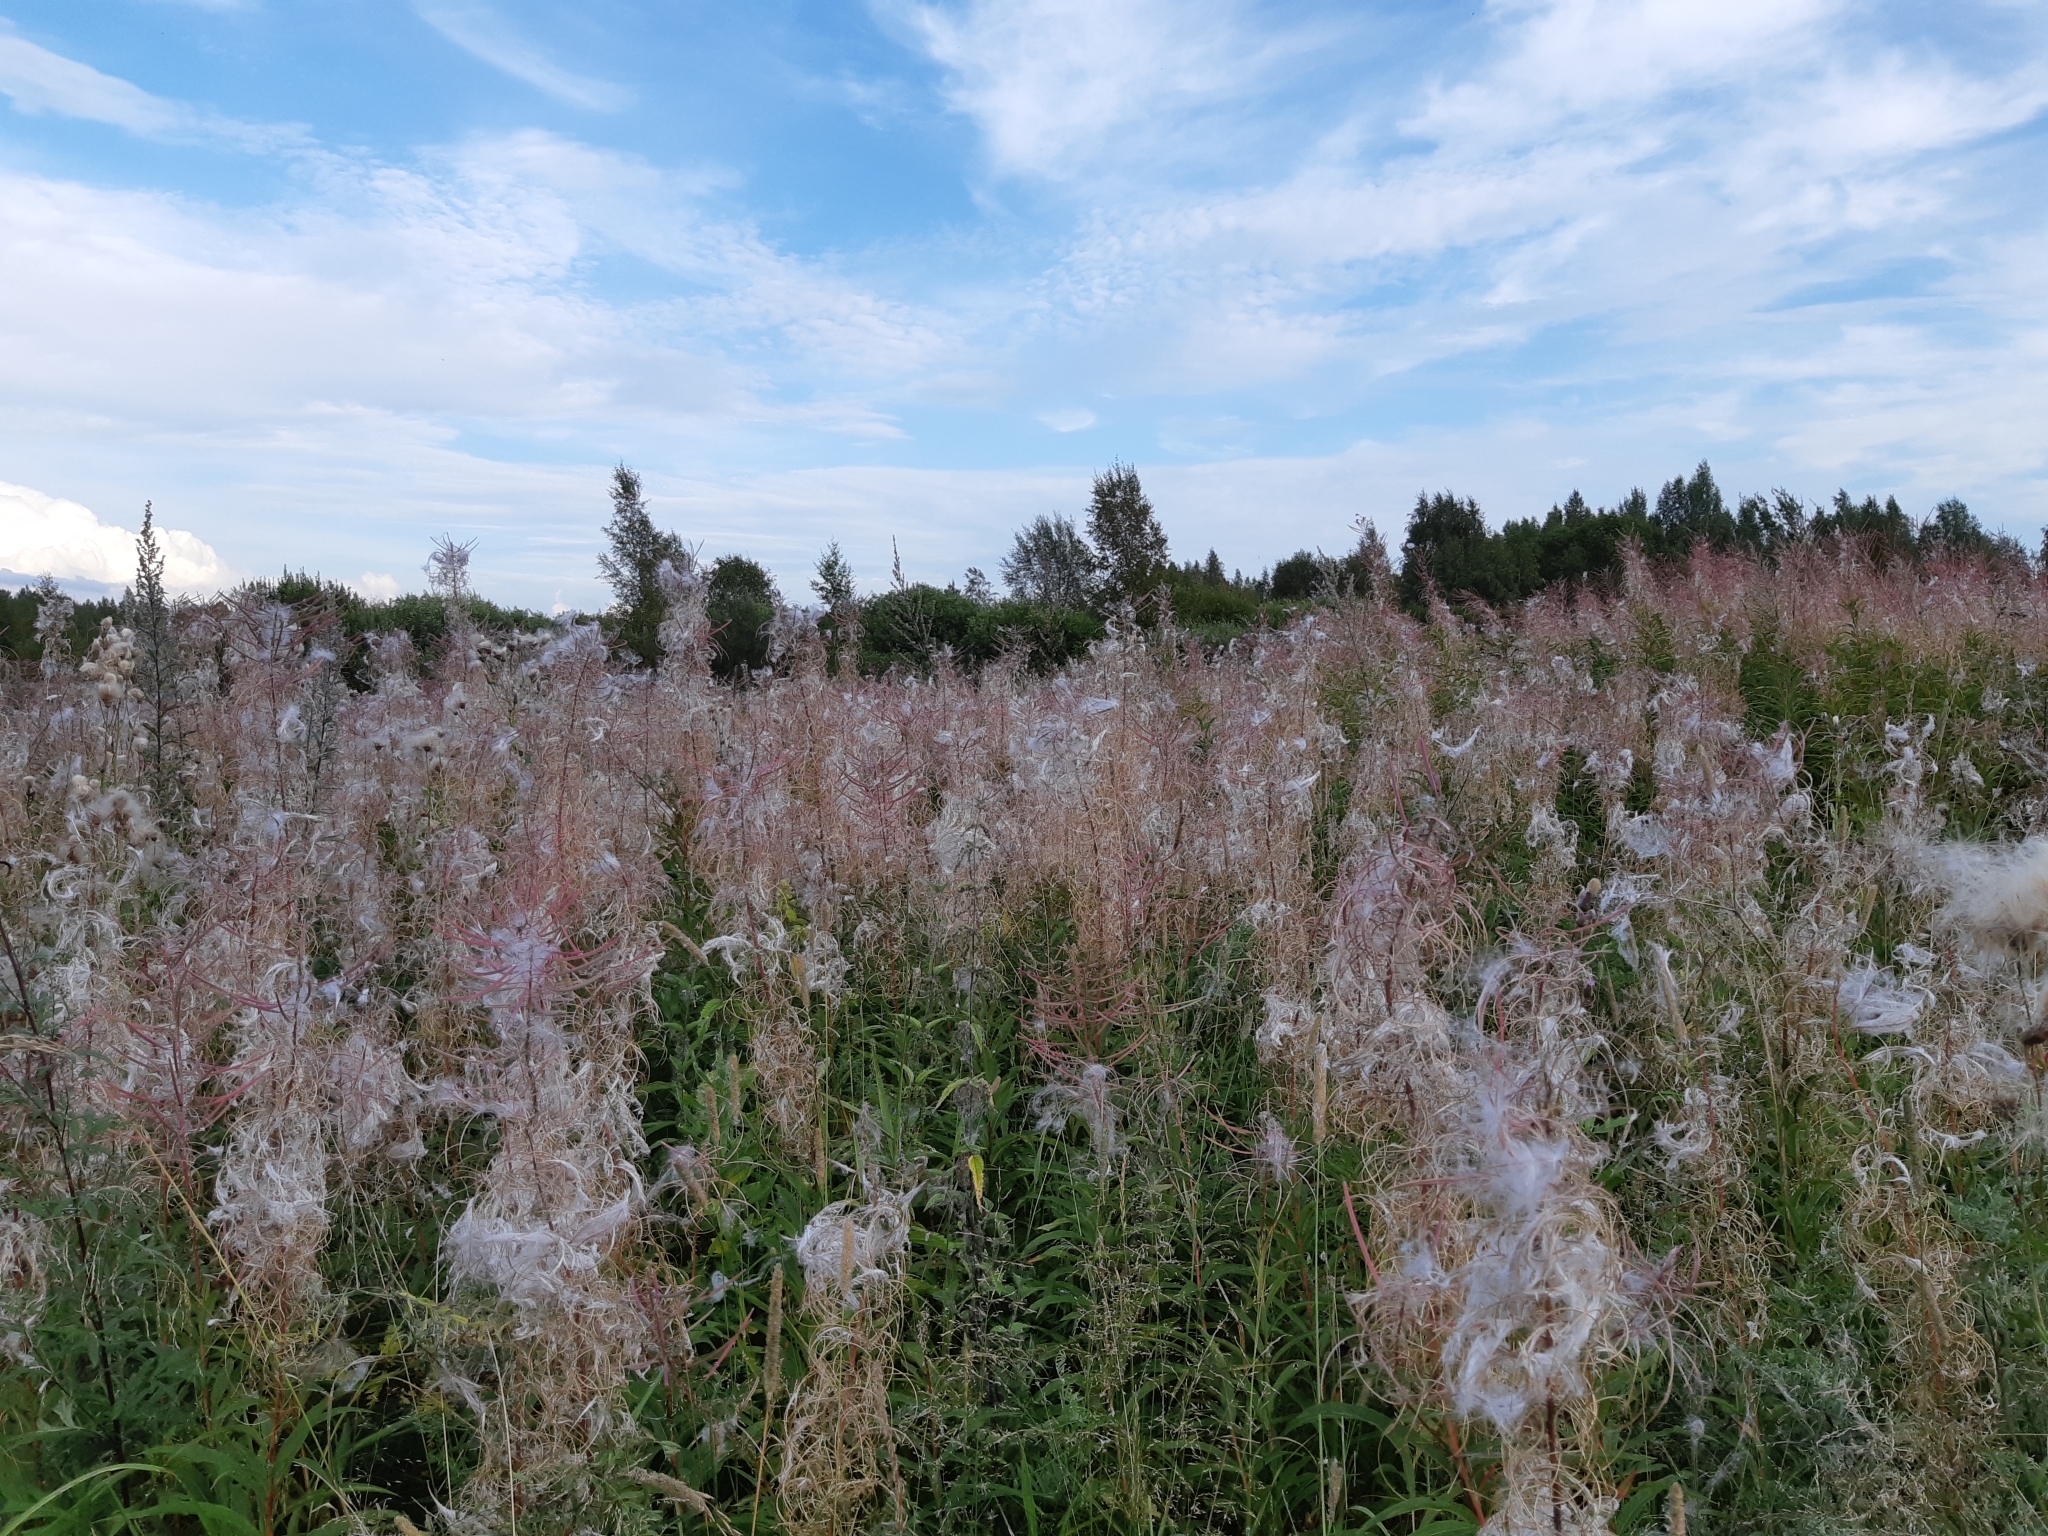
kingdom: Plantae
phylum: Tracheophyta
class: Magnoliopsida
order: Myrtales
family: Onagraceae
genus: Chamaenerion
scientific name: Chamaenerion angustifolium
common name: Fireweed
